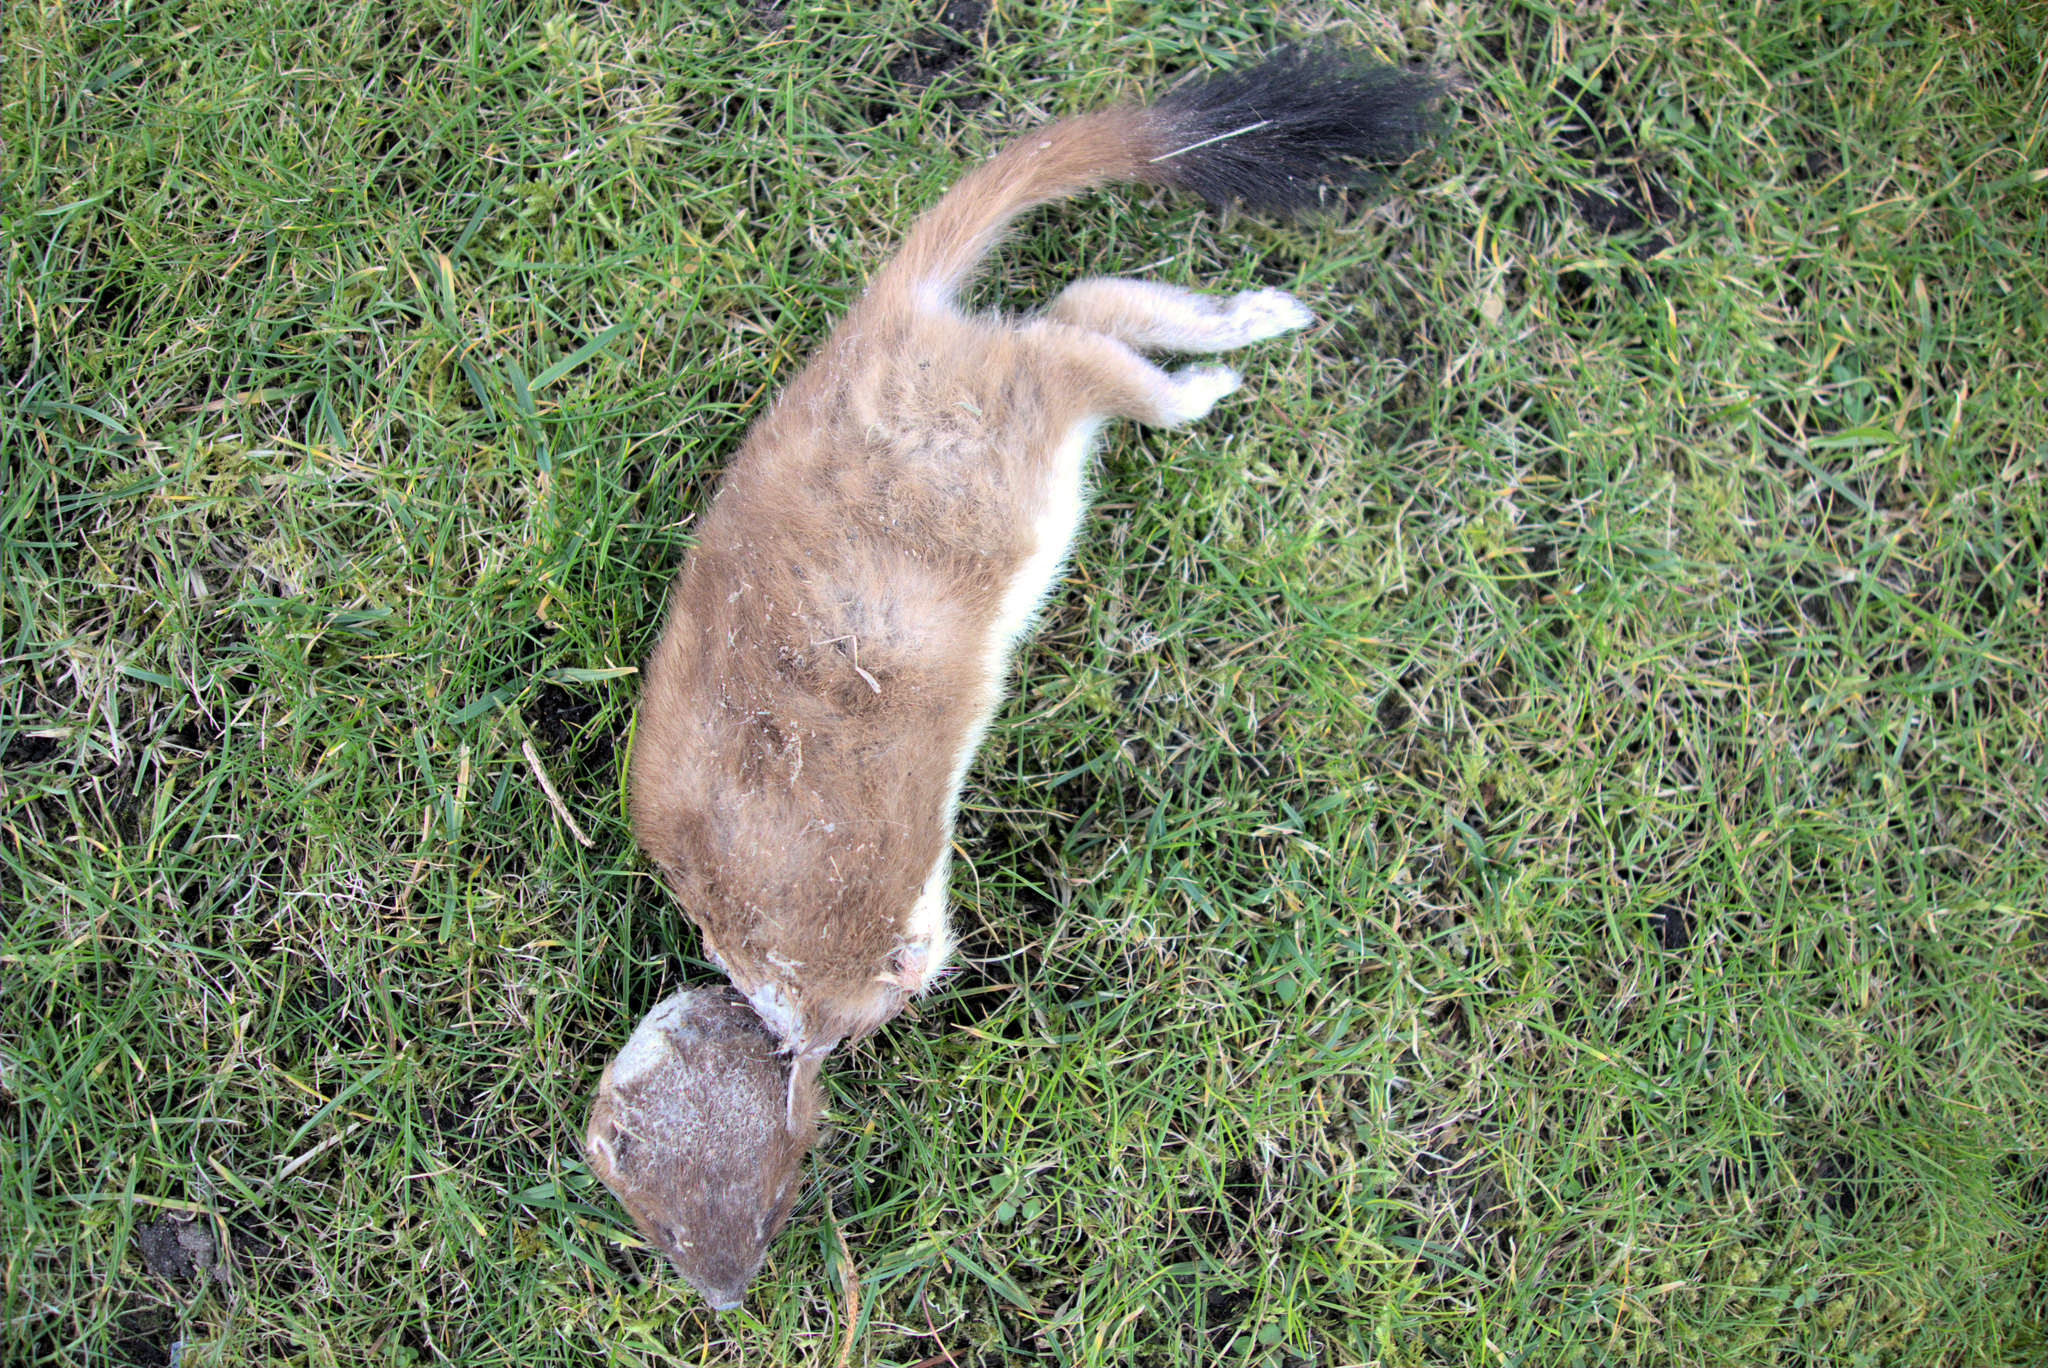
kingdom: Animalia
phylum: Chordata
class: Mammalia
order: Carnivora
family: Mustelidae
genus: Mustela
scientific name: Mustela erminea
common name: Stoat
